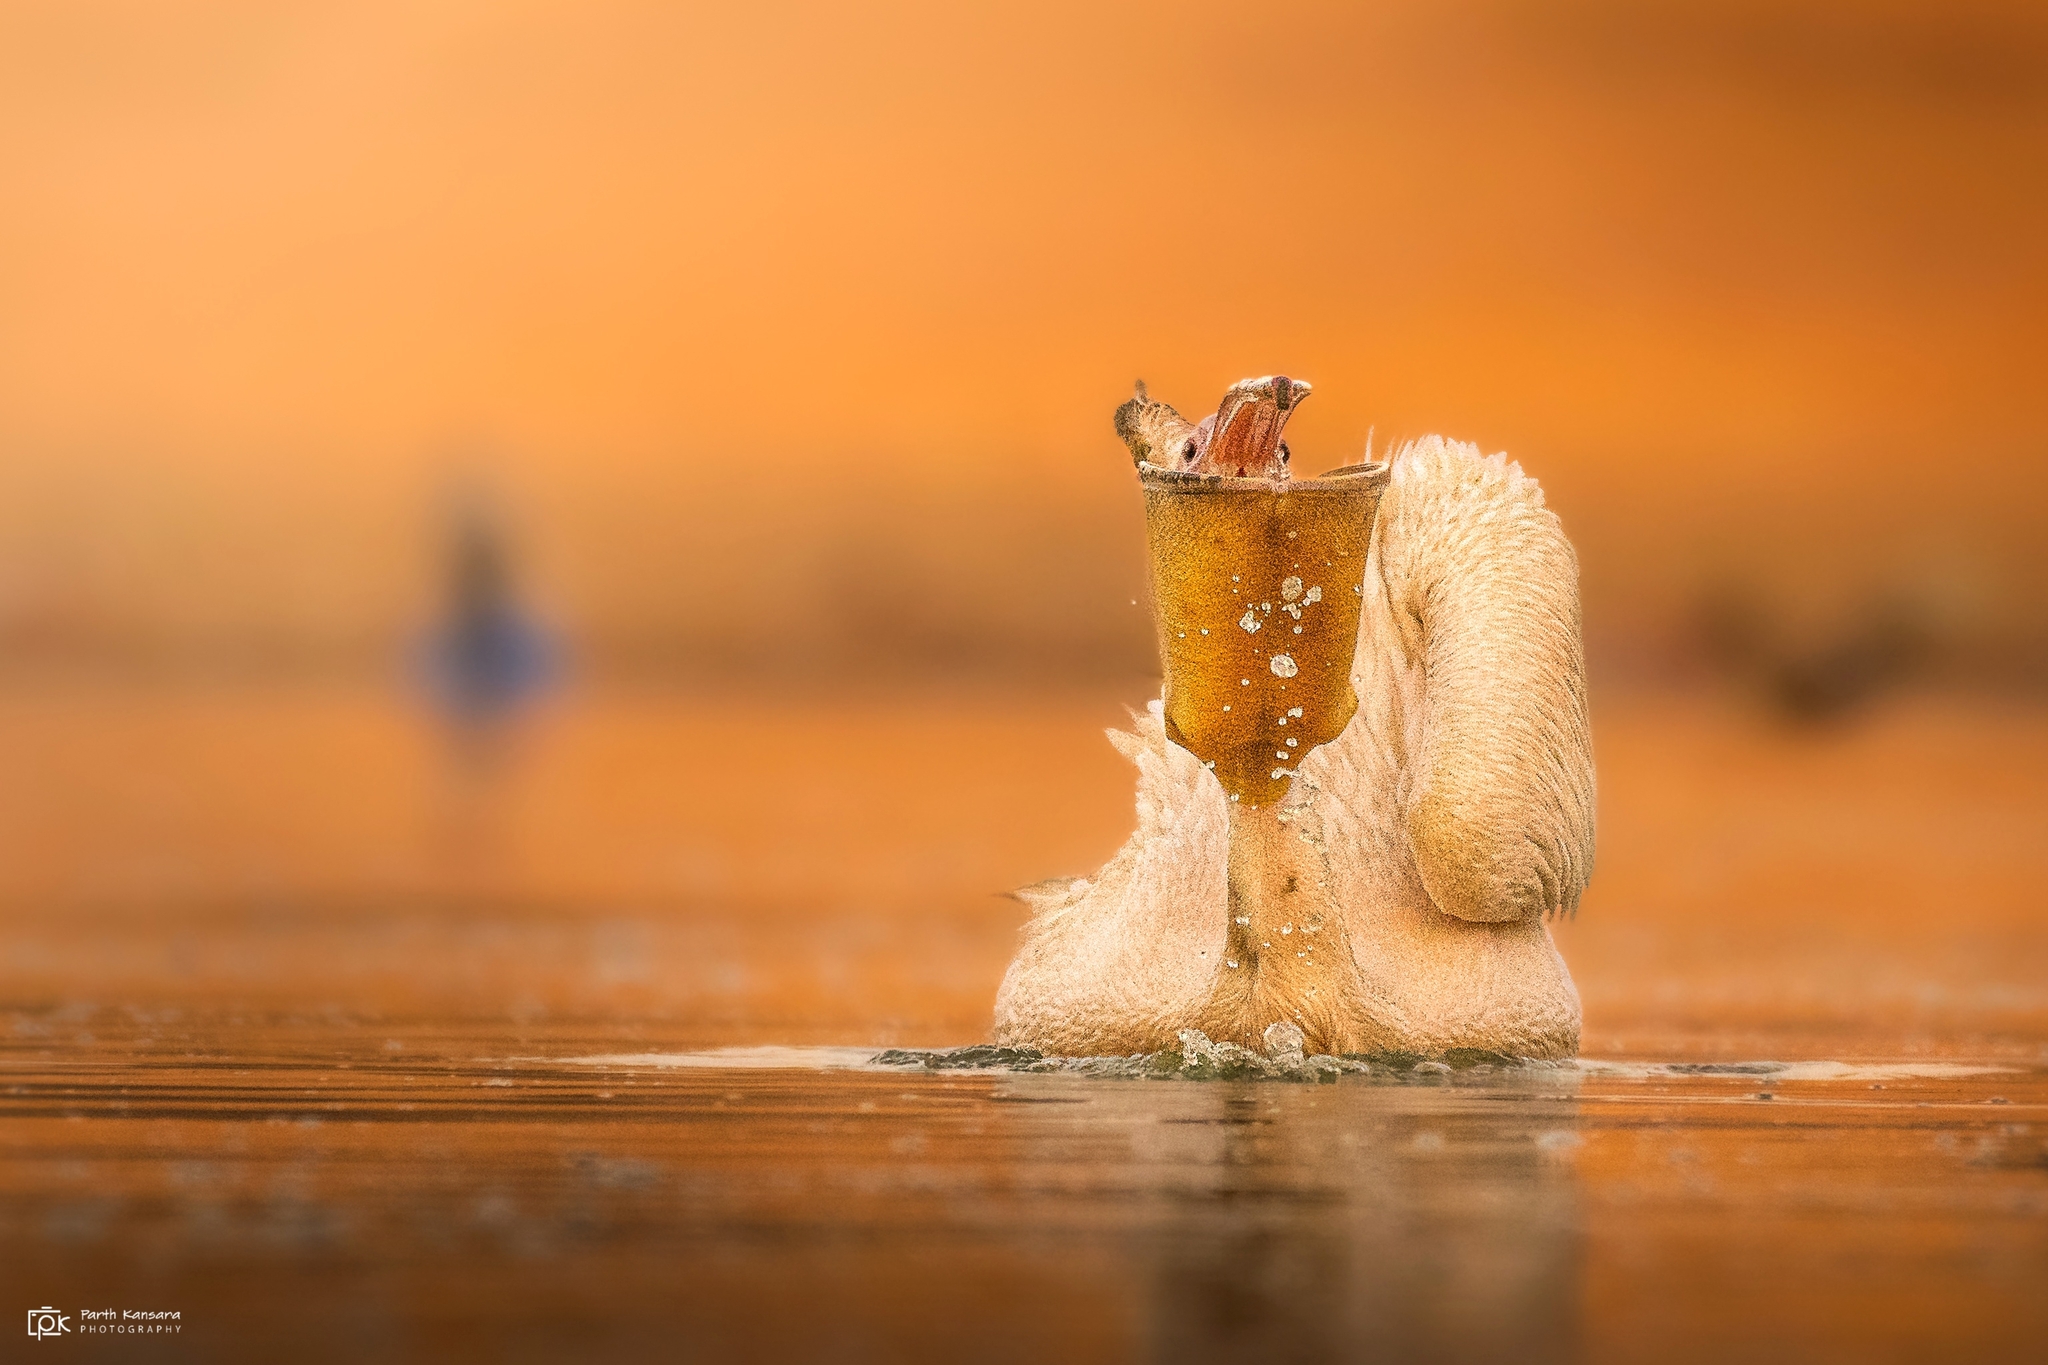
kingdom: Animalia
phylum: Chordata
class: Aves
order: Pelecaniformes
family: Pelecanidae
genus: Pelecanus
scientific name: Pelecanus onocrotalus
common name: Great white pelican
